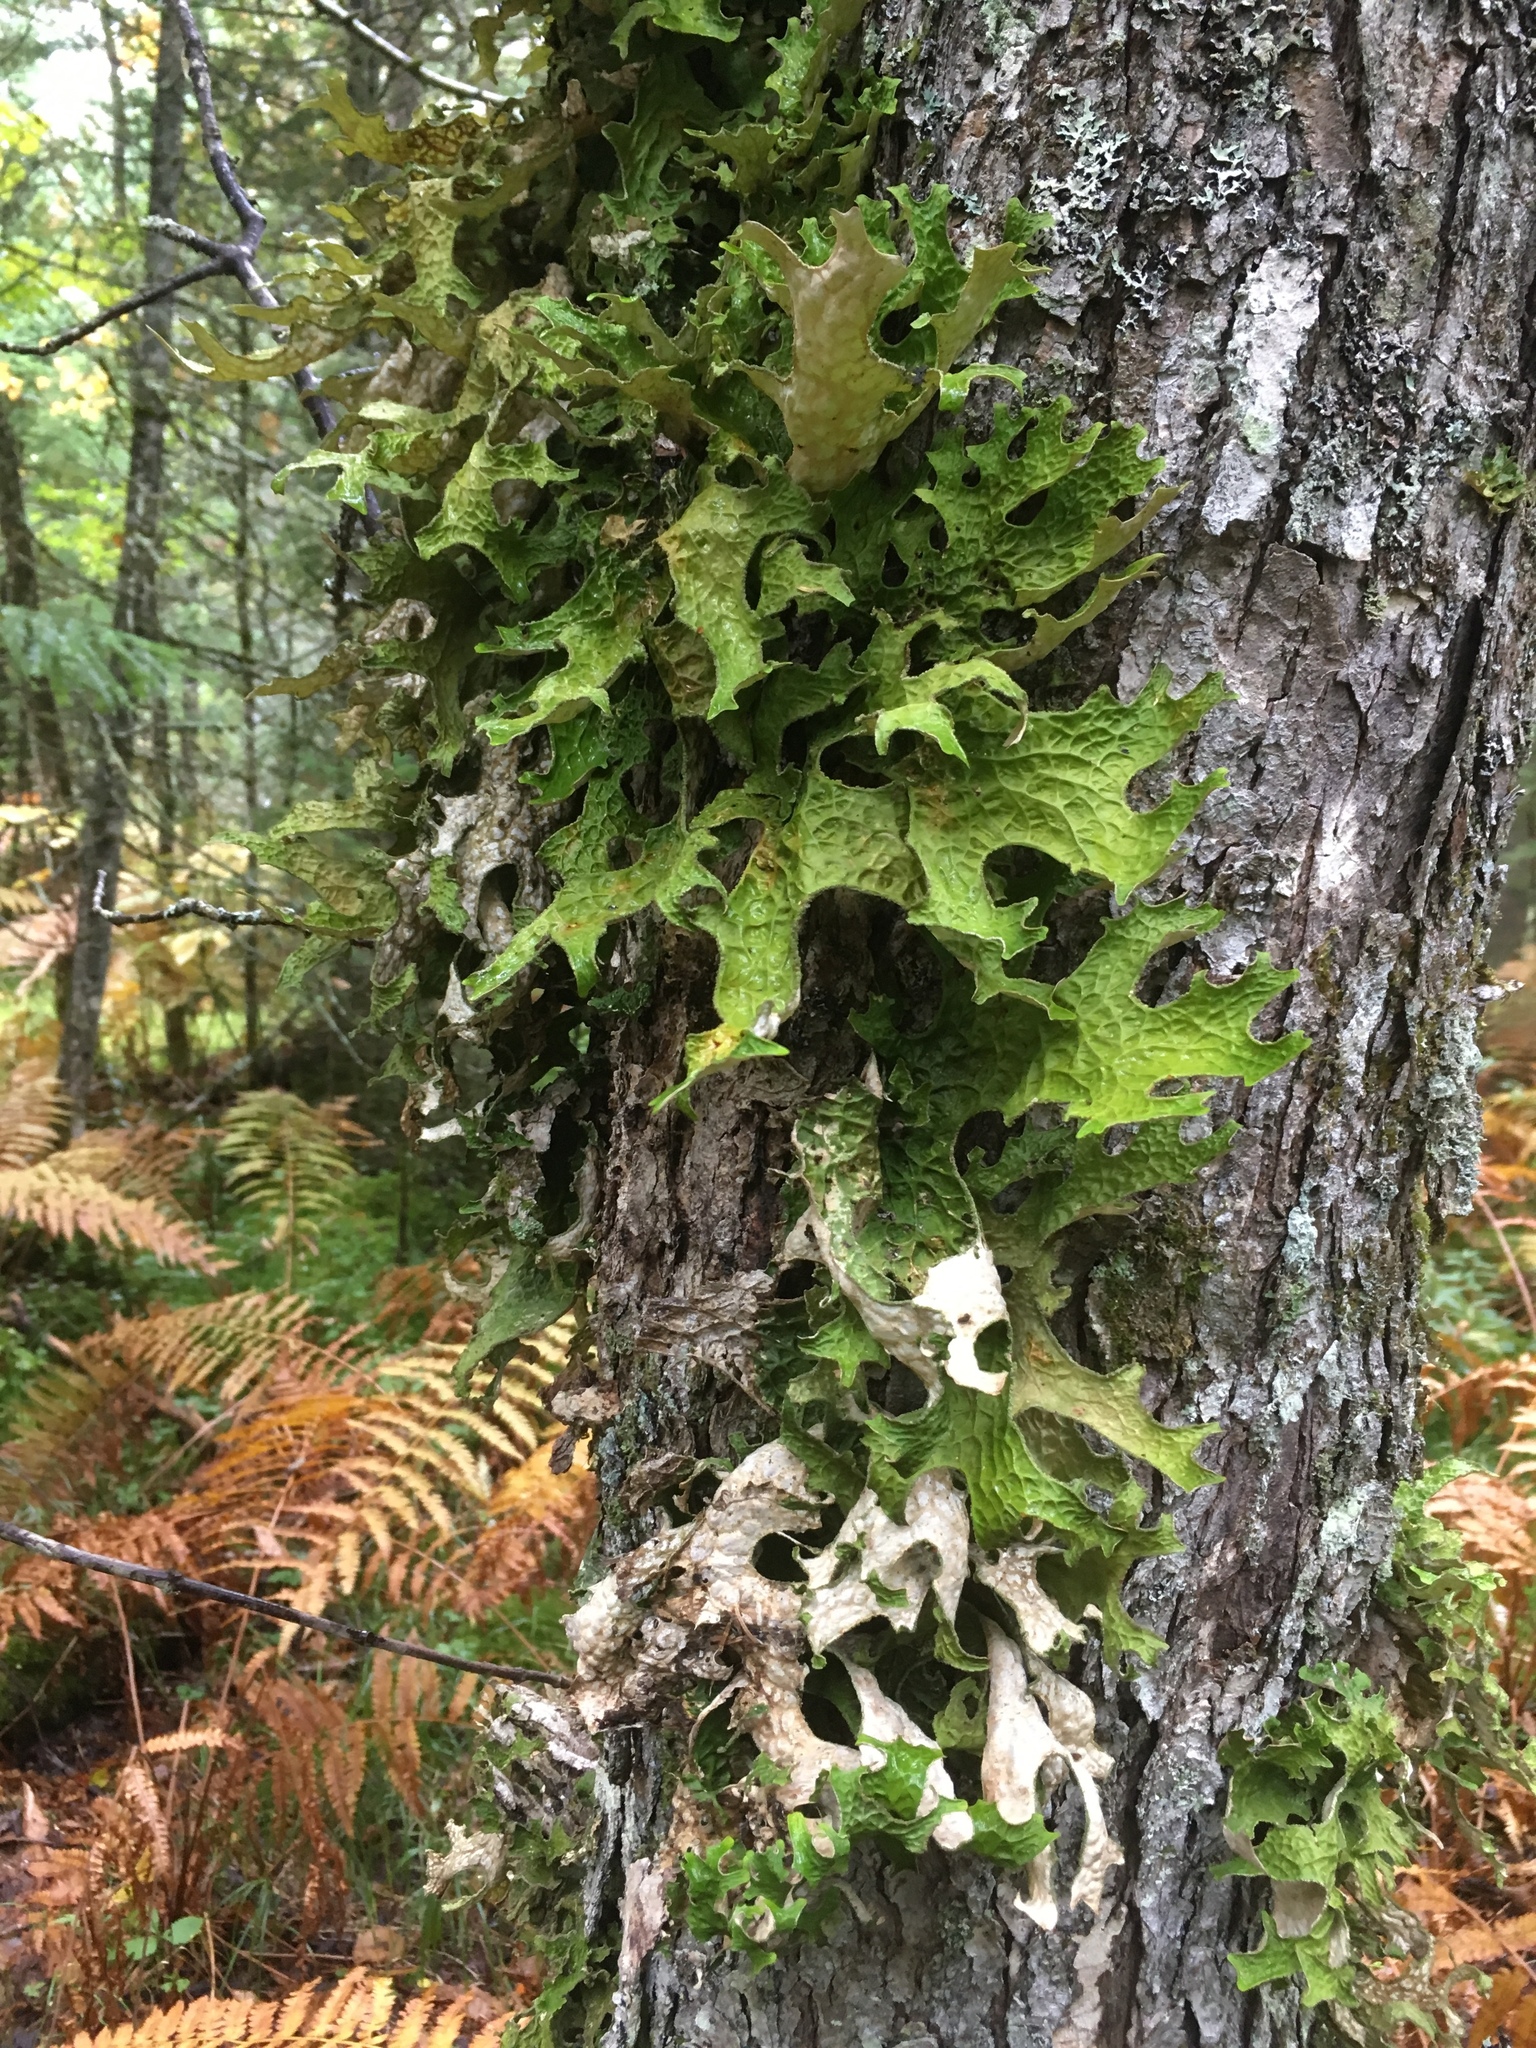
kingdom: Fungi
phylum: Ascomycota
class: Lecanoromycetes
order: Peltigerales
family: Lobariaceae
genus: Lobaria
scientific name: Lobaria pulmonaria
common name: Lungwort
